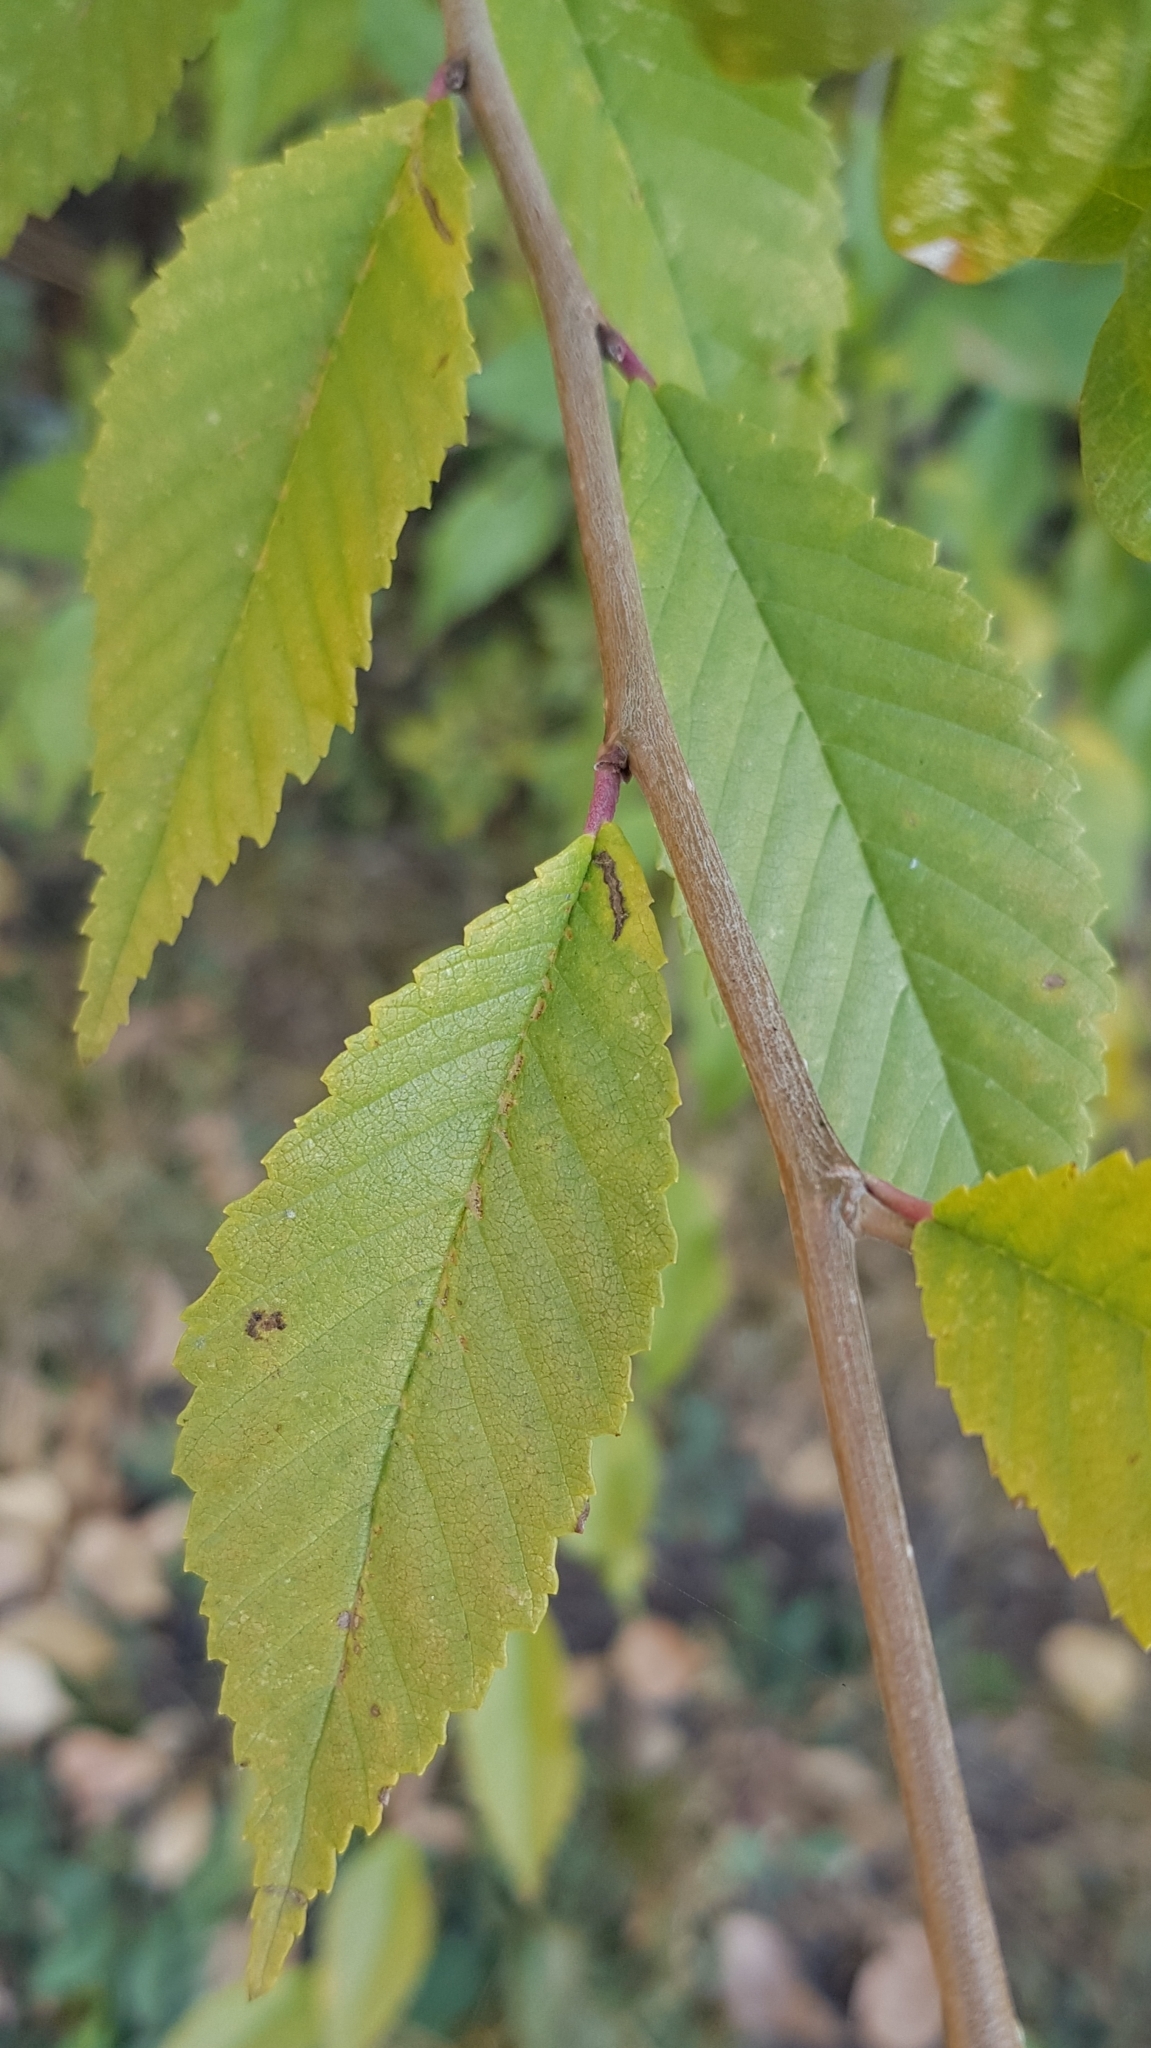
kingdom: Plantae
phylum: Tracheophyta
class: Magnoliopsida
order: Rosales
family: Ulmaceae
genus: Ulmus
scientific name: Ulmus pumila
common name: Siberian elm
